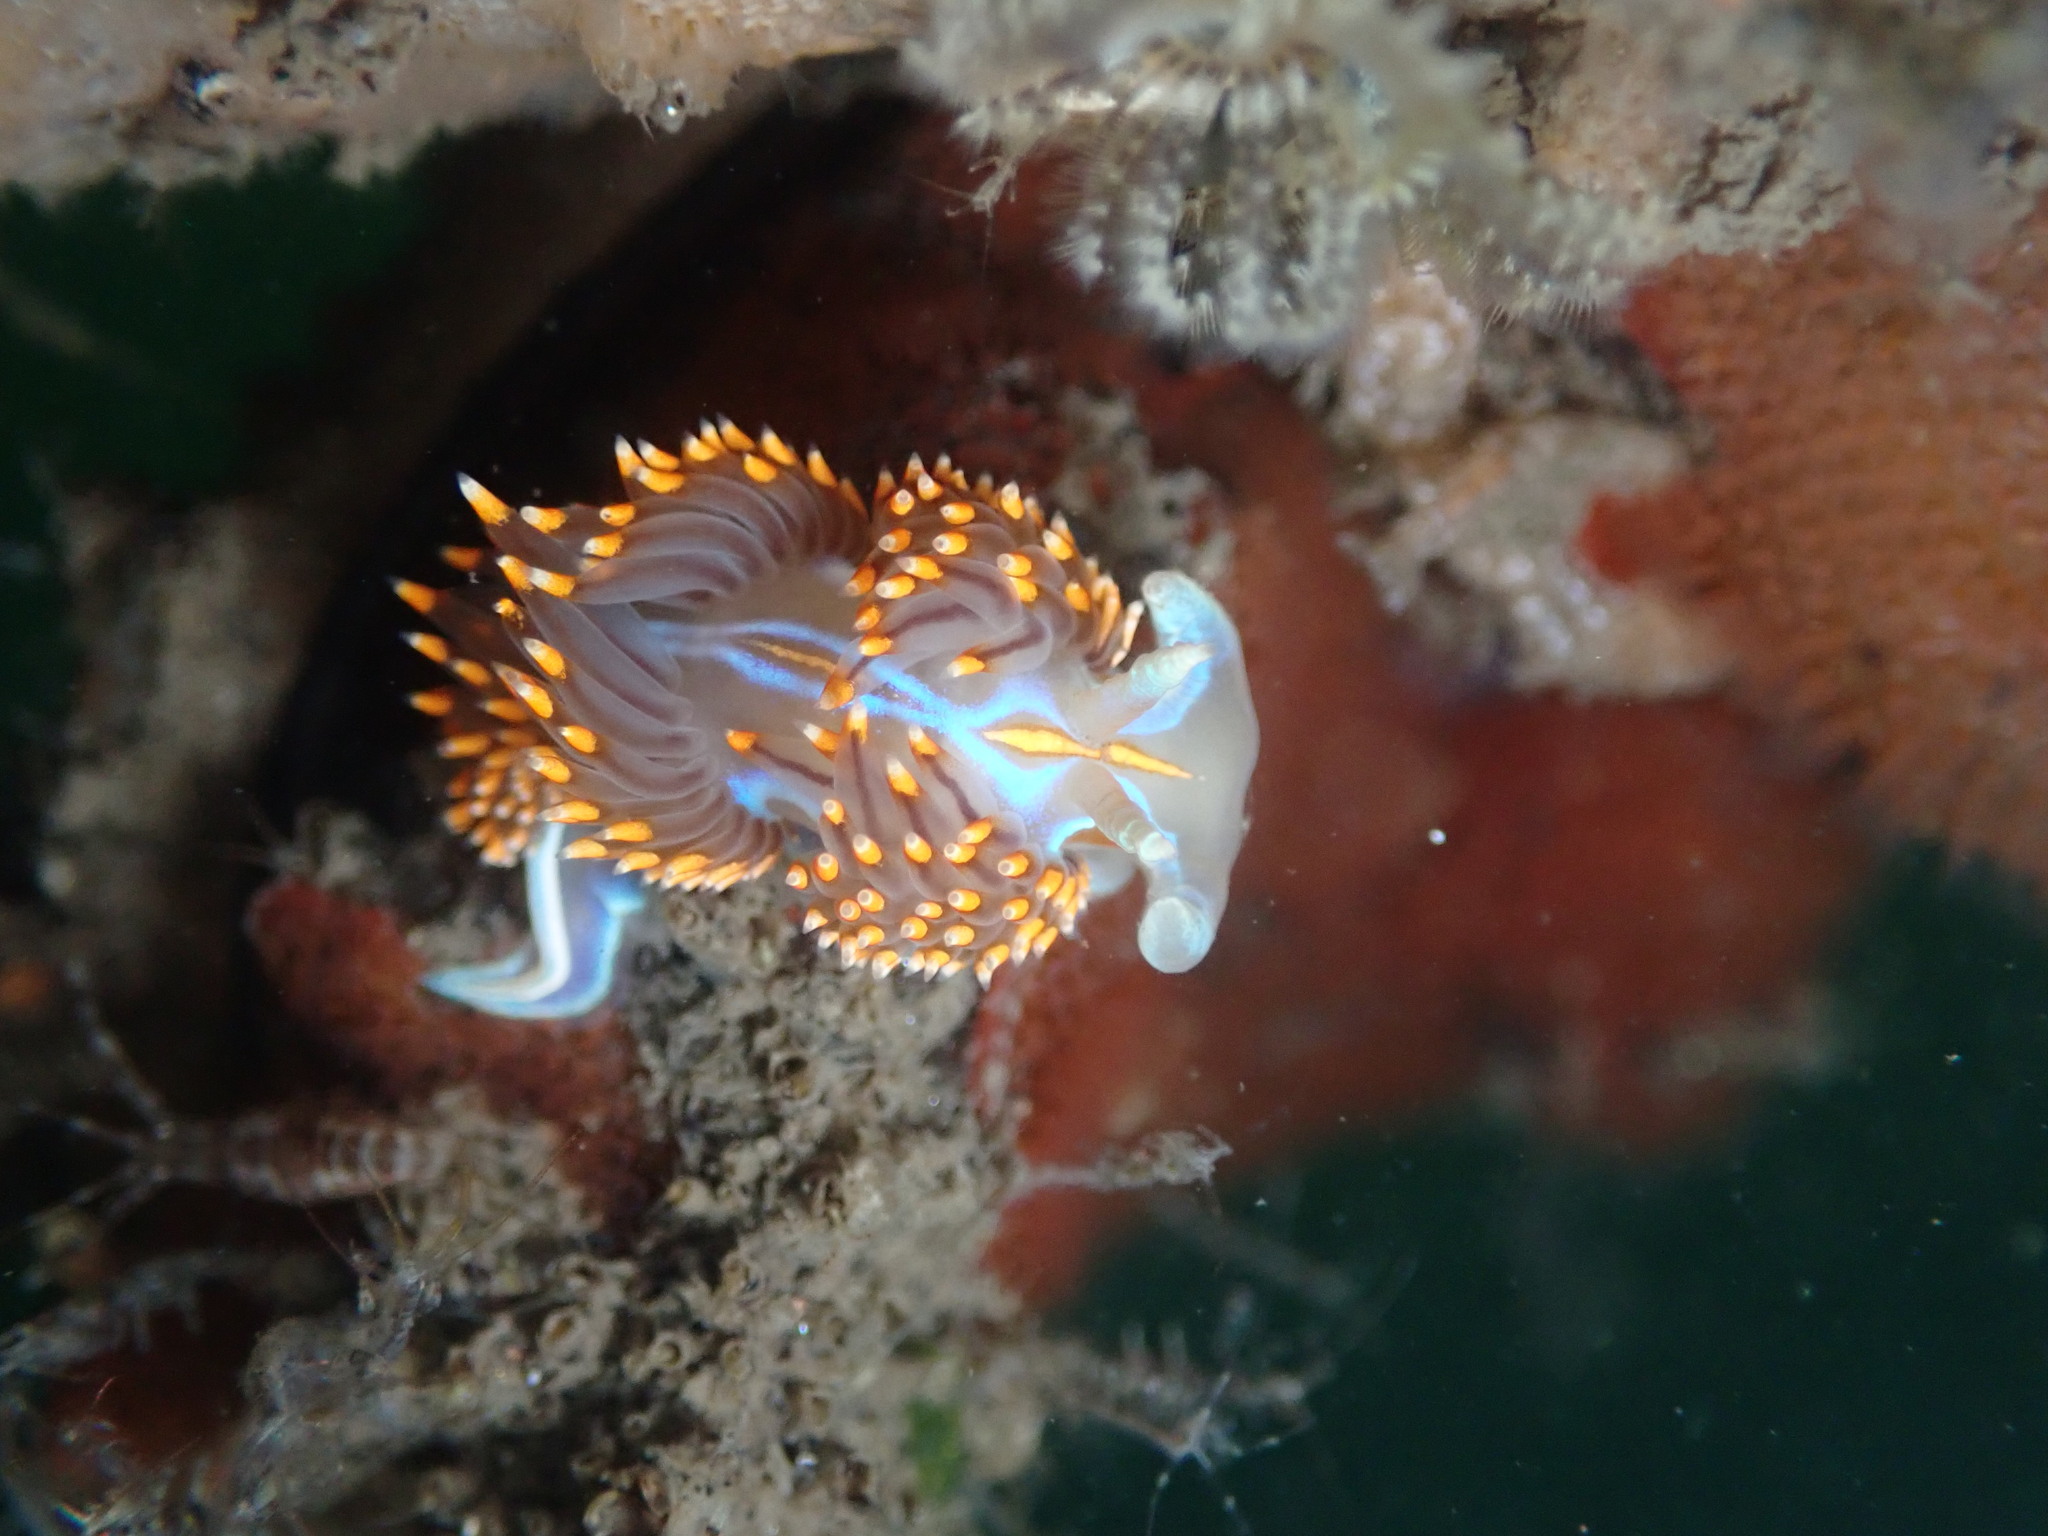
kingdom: Animalia
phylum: Mollusca
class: Gastropoda
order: Nudibranchia
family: Myrrhinidae
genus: Hermissenda
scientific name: Hermissenda opalescens
